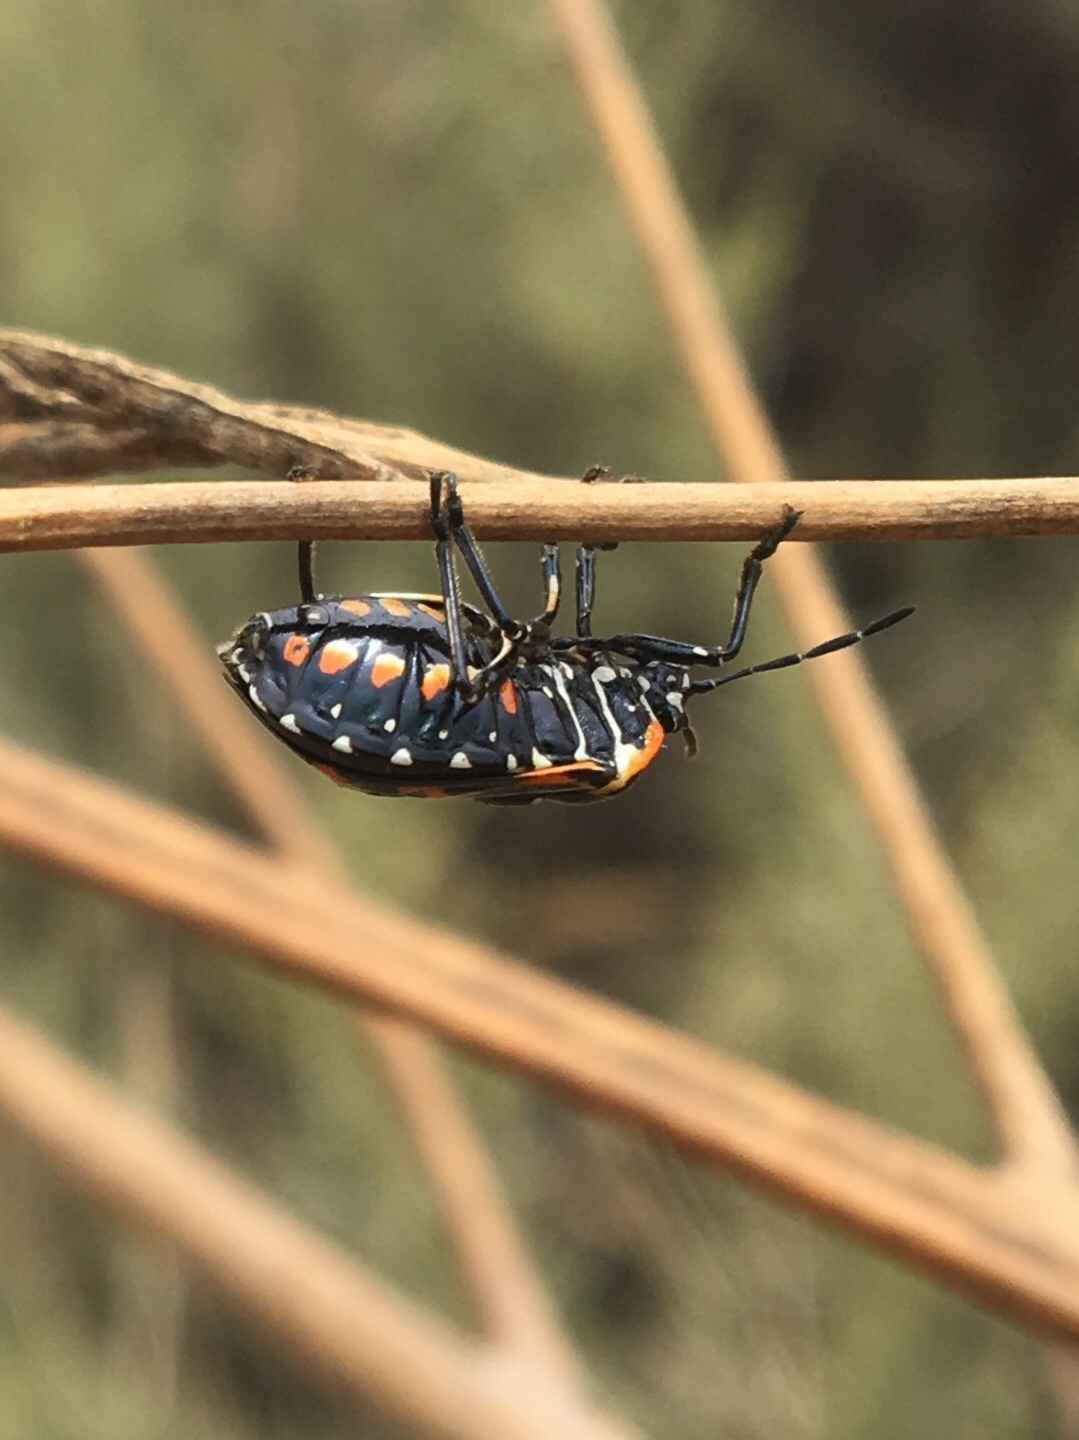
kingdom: Animalia
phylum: Arthropoda
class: Insecta
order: Hemiptera
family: Pentatomidae
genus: Murgantia
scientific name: Murgantia histrionica
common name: Harlequin bug
